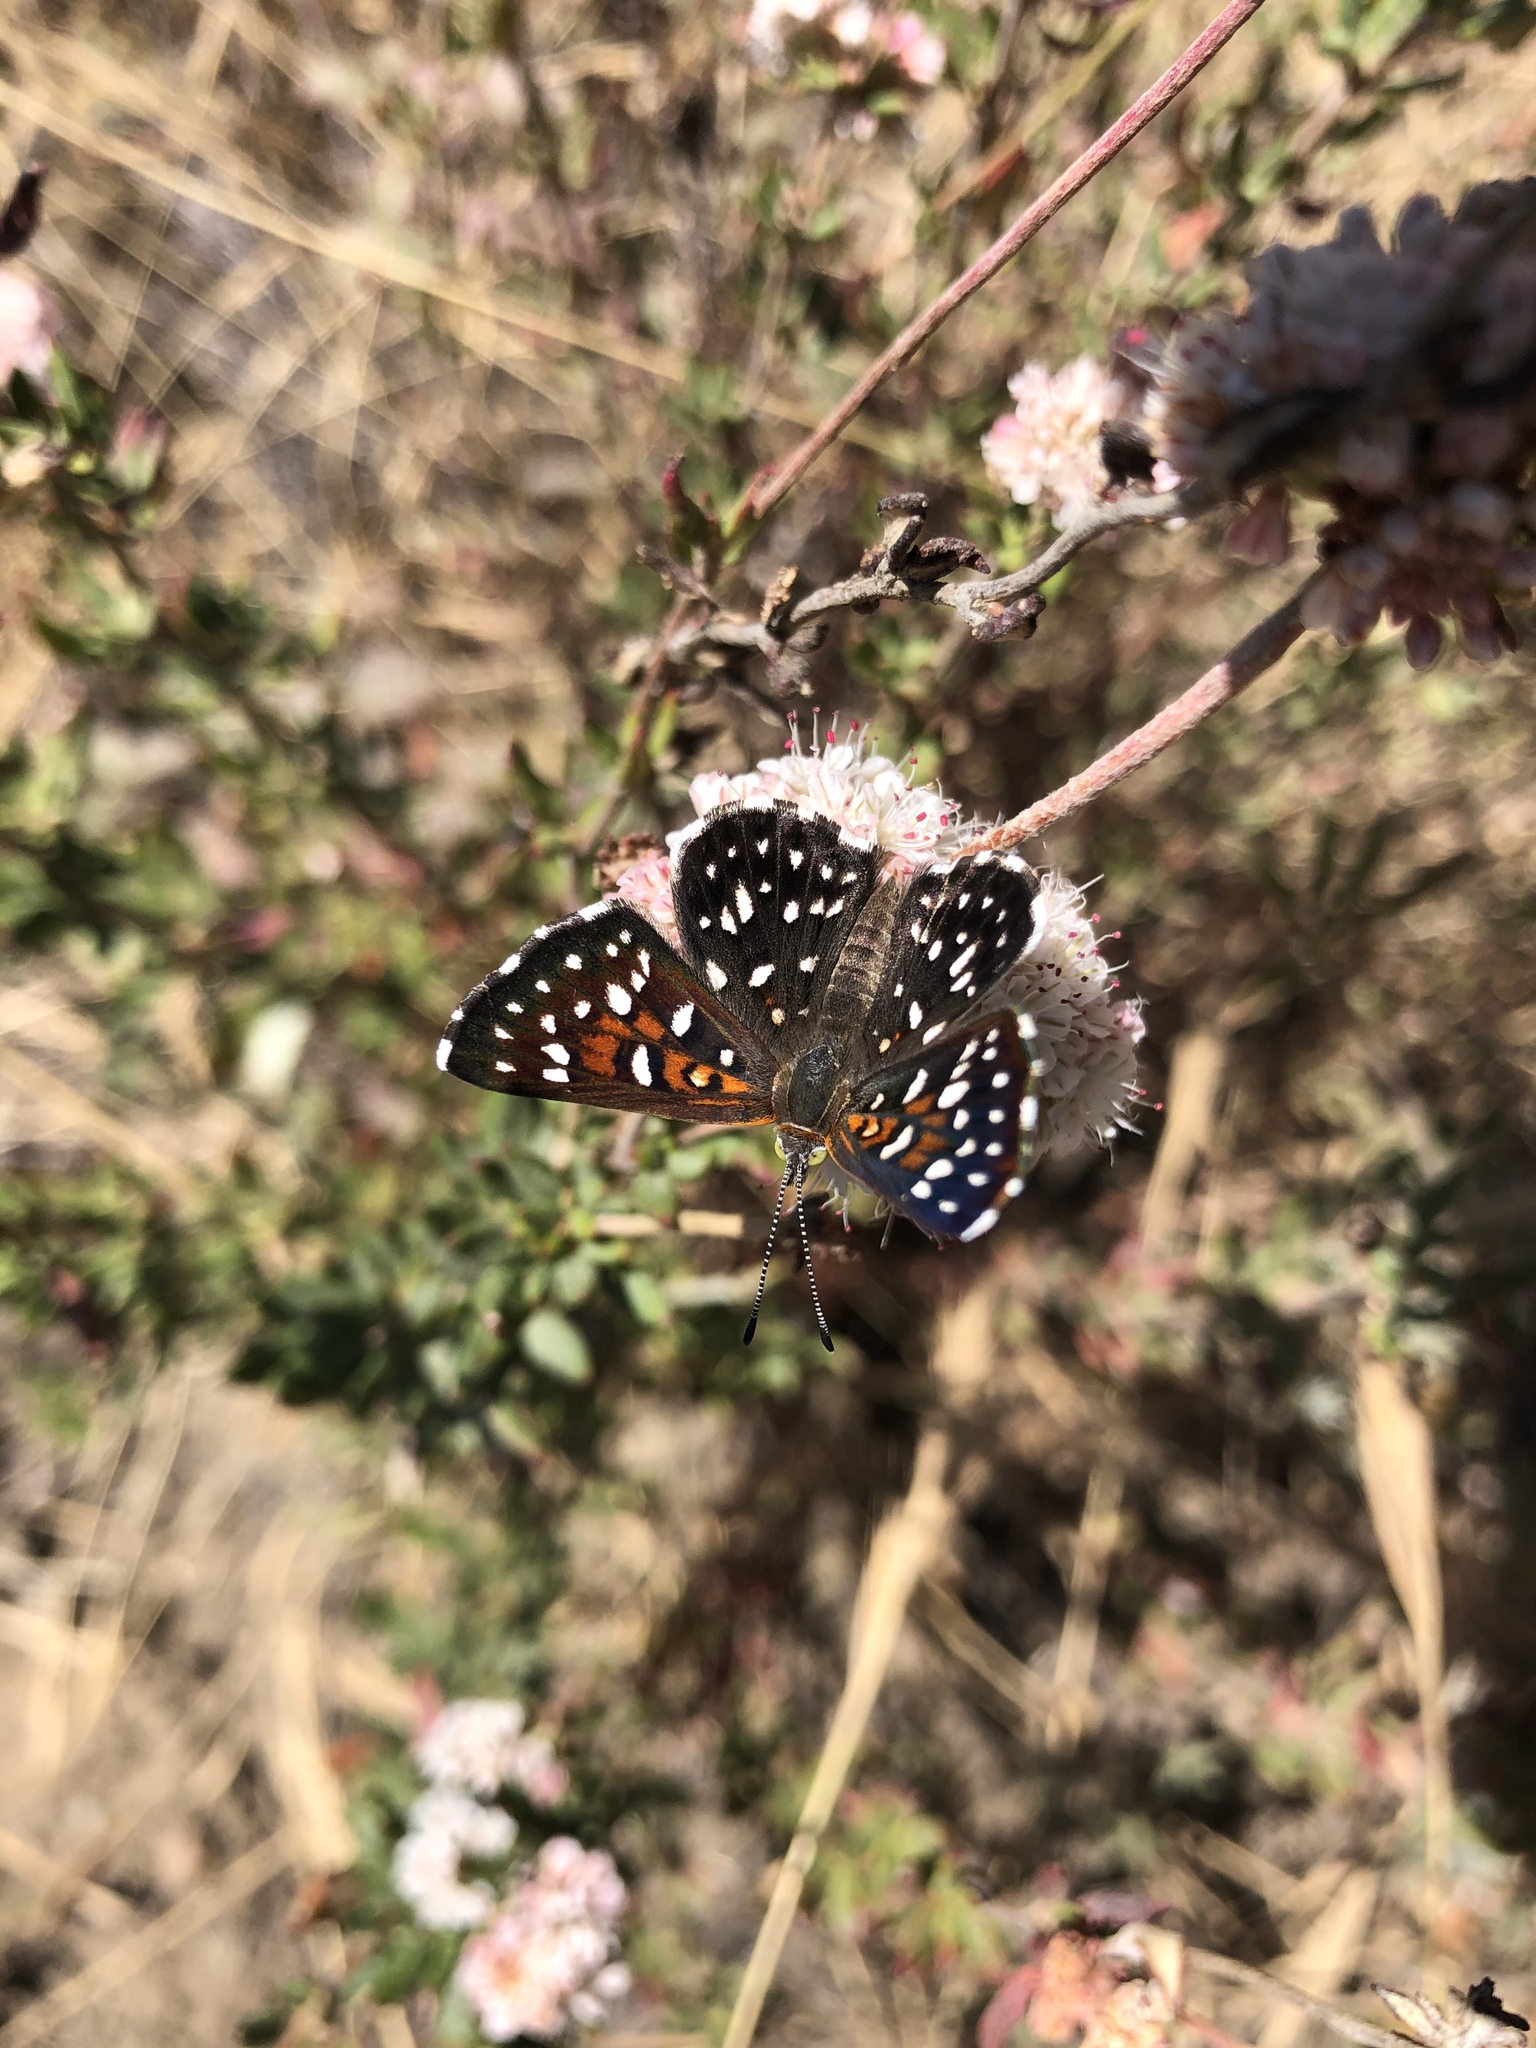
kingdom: Animalia
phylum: Arthropoda
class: Insecta
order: Lepidoptera
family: Riodinidae
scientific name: Riodinidae
